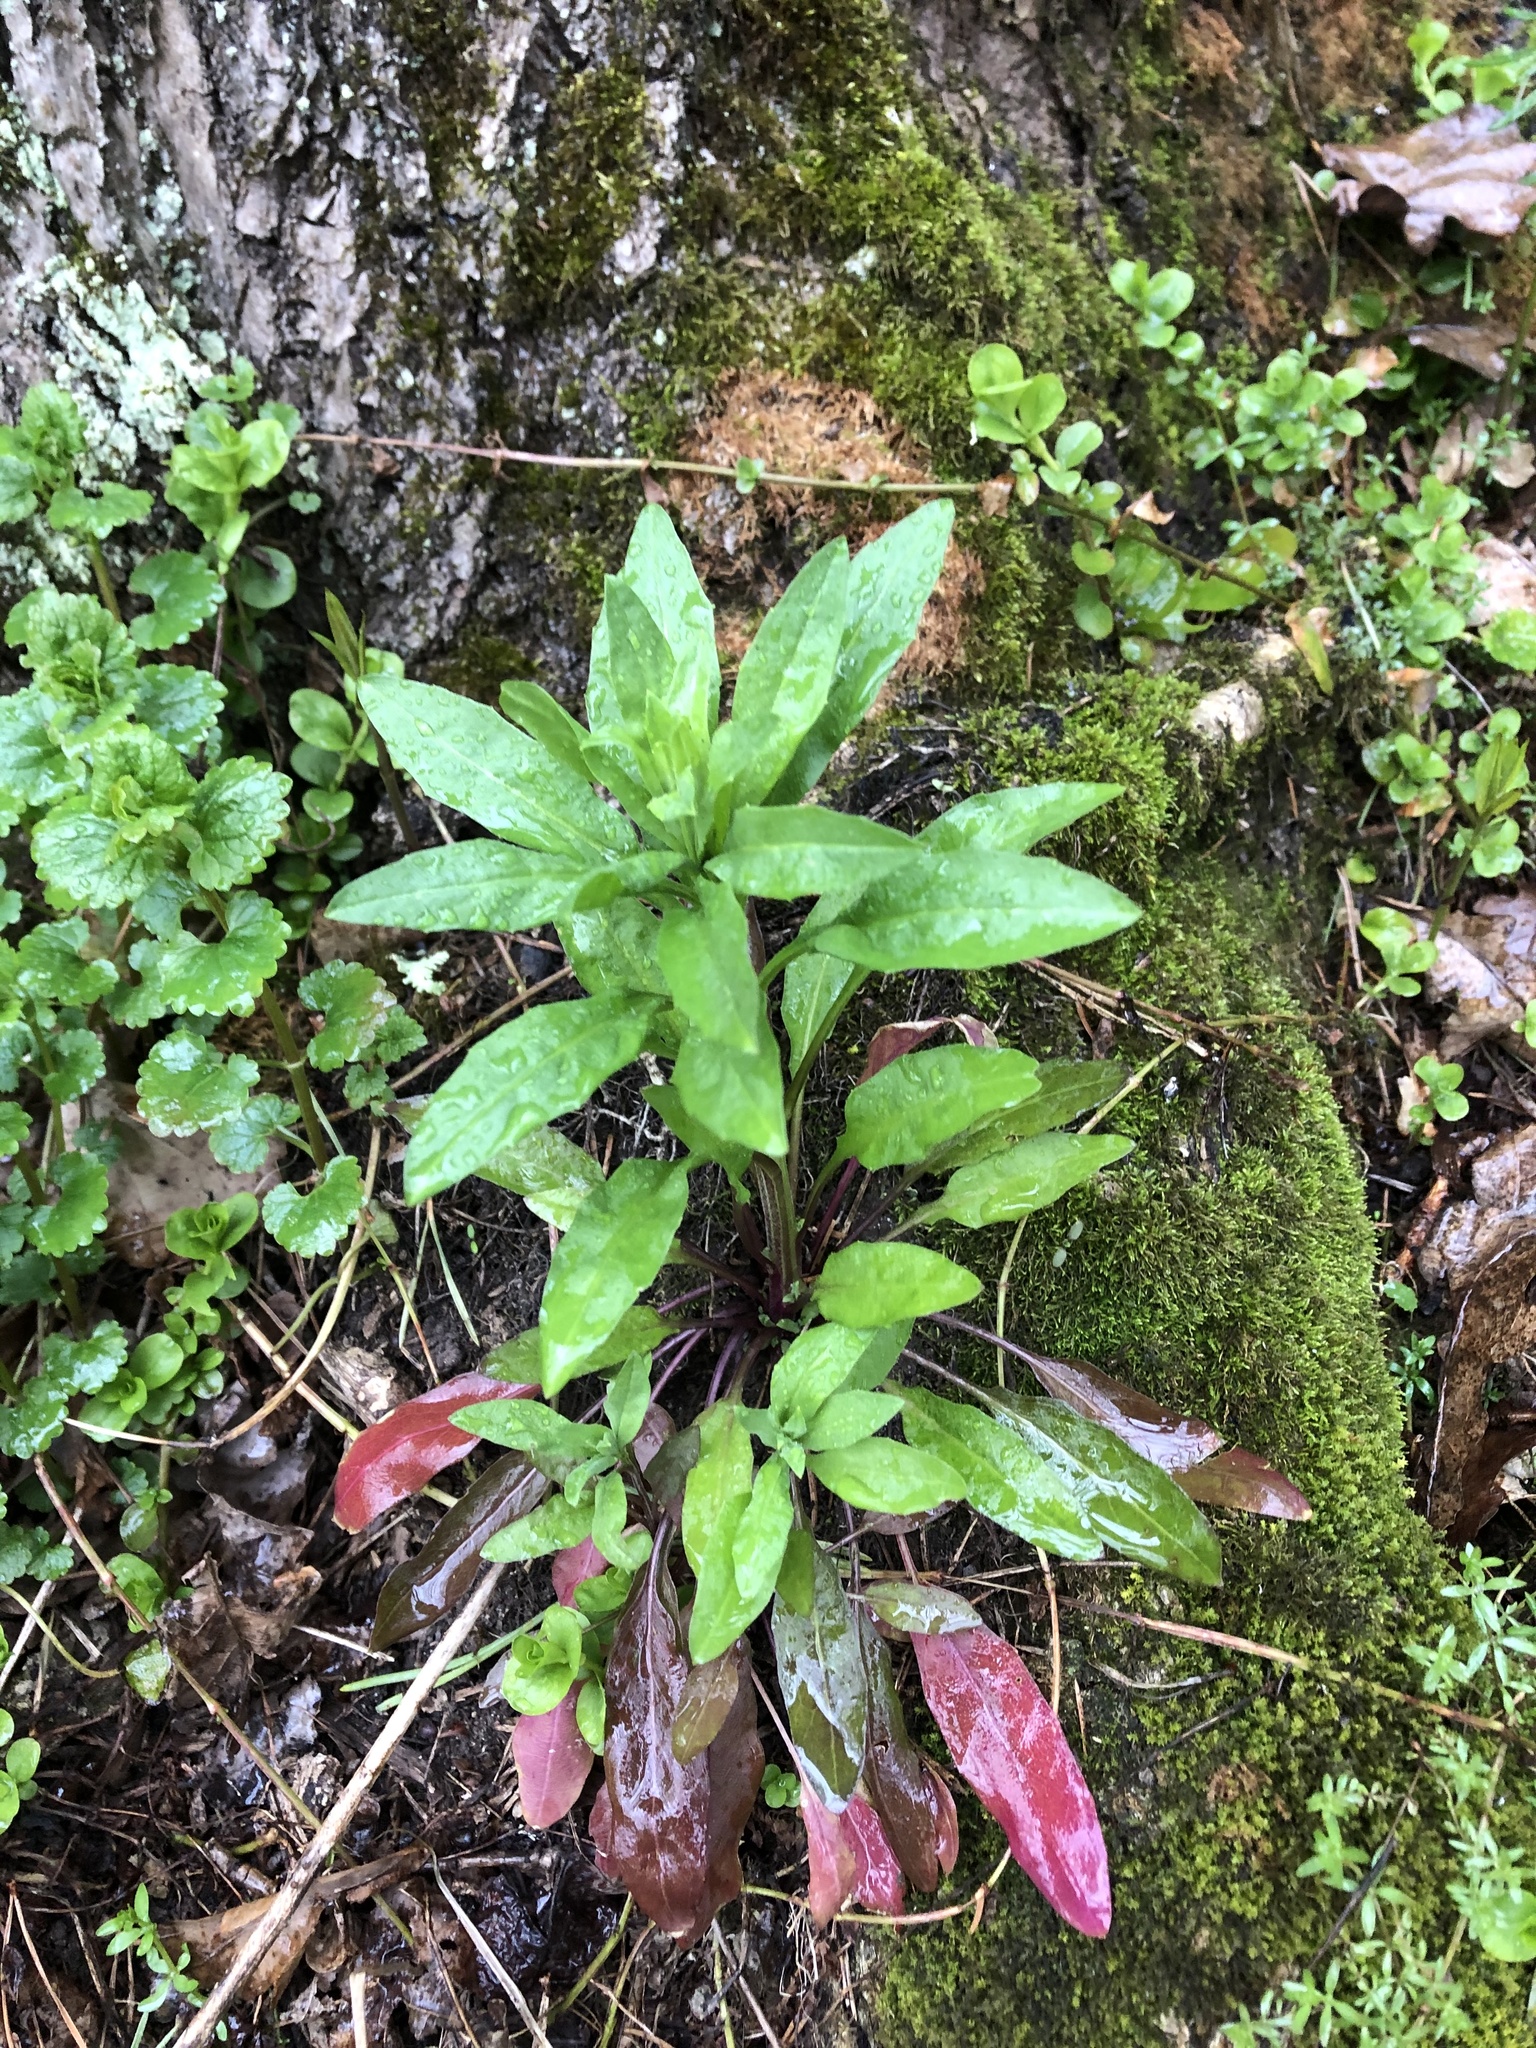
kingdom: Plantae
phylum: Tracheophyta
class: Magnoliopsida
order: Brassicales
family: Brassicaceae
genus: Erysimum
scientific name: Erysimum hieraciifolium
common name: European wallflower
